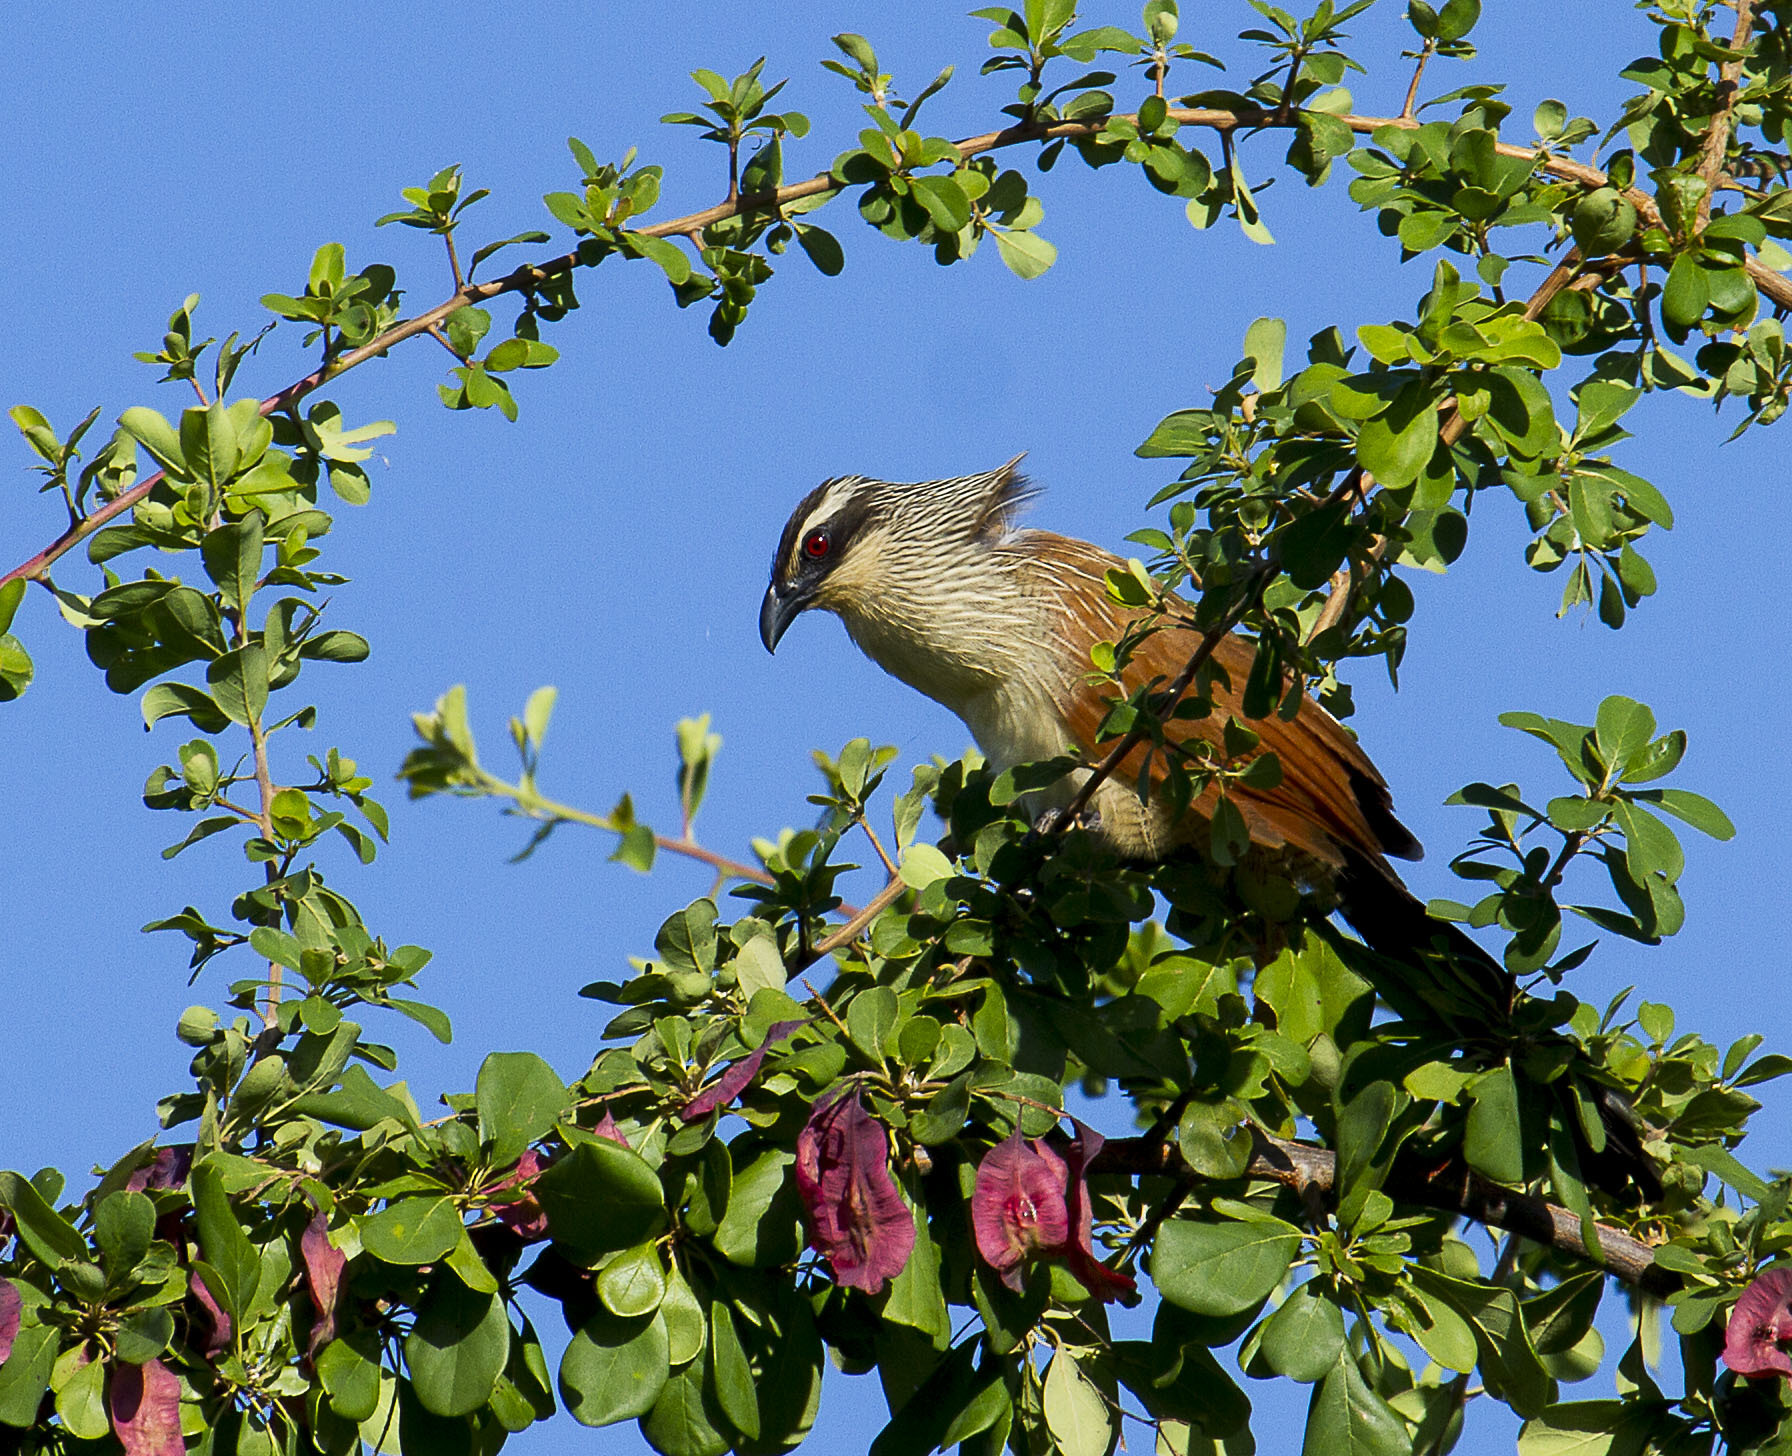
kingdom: Animalia
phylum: Chordata
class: Aves
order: Cuculiformes
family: Cuculidae
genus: Centropus
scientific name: Centropus superciliosus
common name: White-browed coucal
